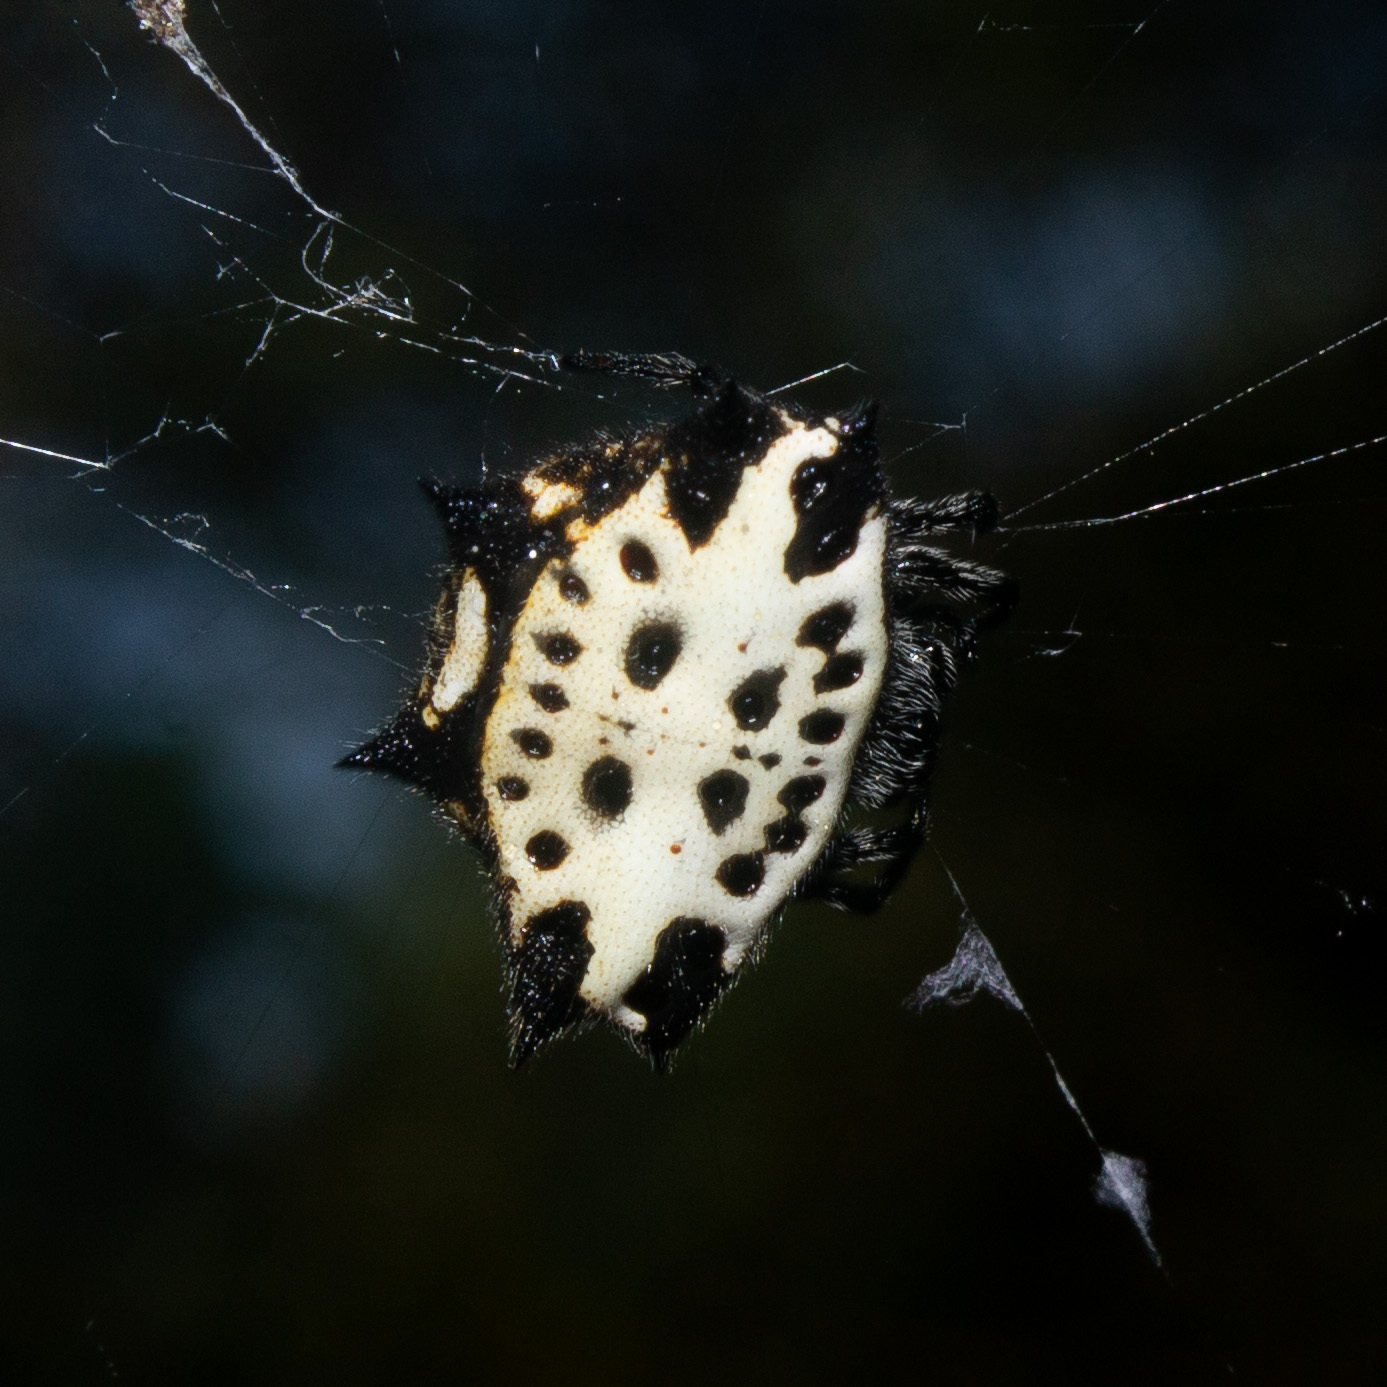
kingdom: Animalia
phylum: Arthropoda
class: Arachnida
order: Araneae
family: Araneidae
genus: Gasteracantha
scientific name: Gasteracantha cancriformis
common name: Orb weavers
